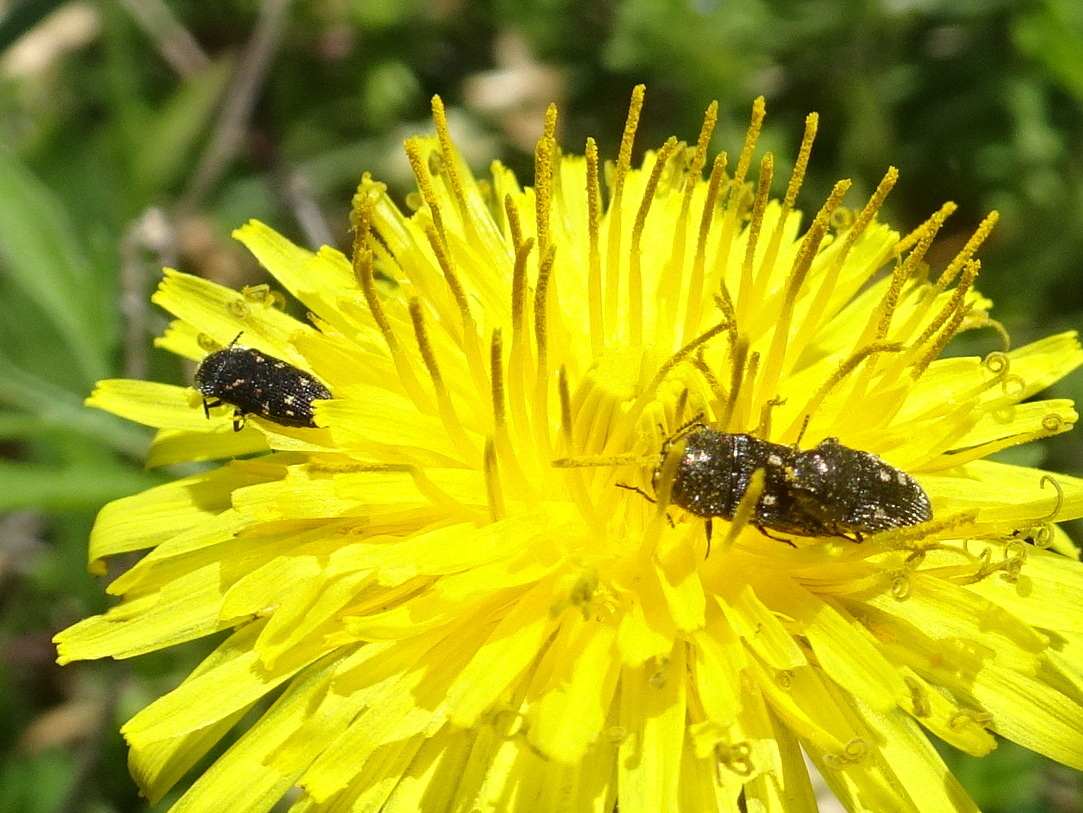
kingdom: Animalia
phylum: Arthropoda
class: Insecta
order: Coleoptera
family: Buprestidae
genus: Acmaeodera
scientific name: Acmaeodera tubulus
